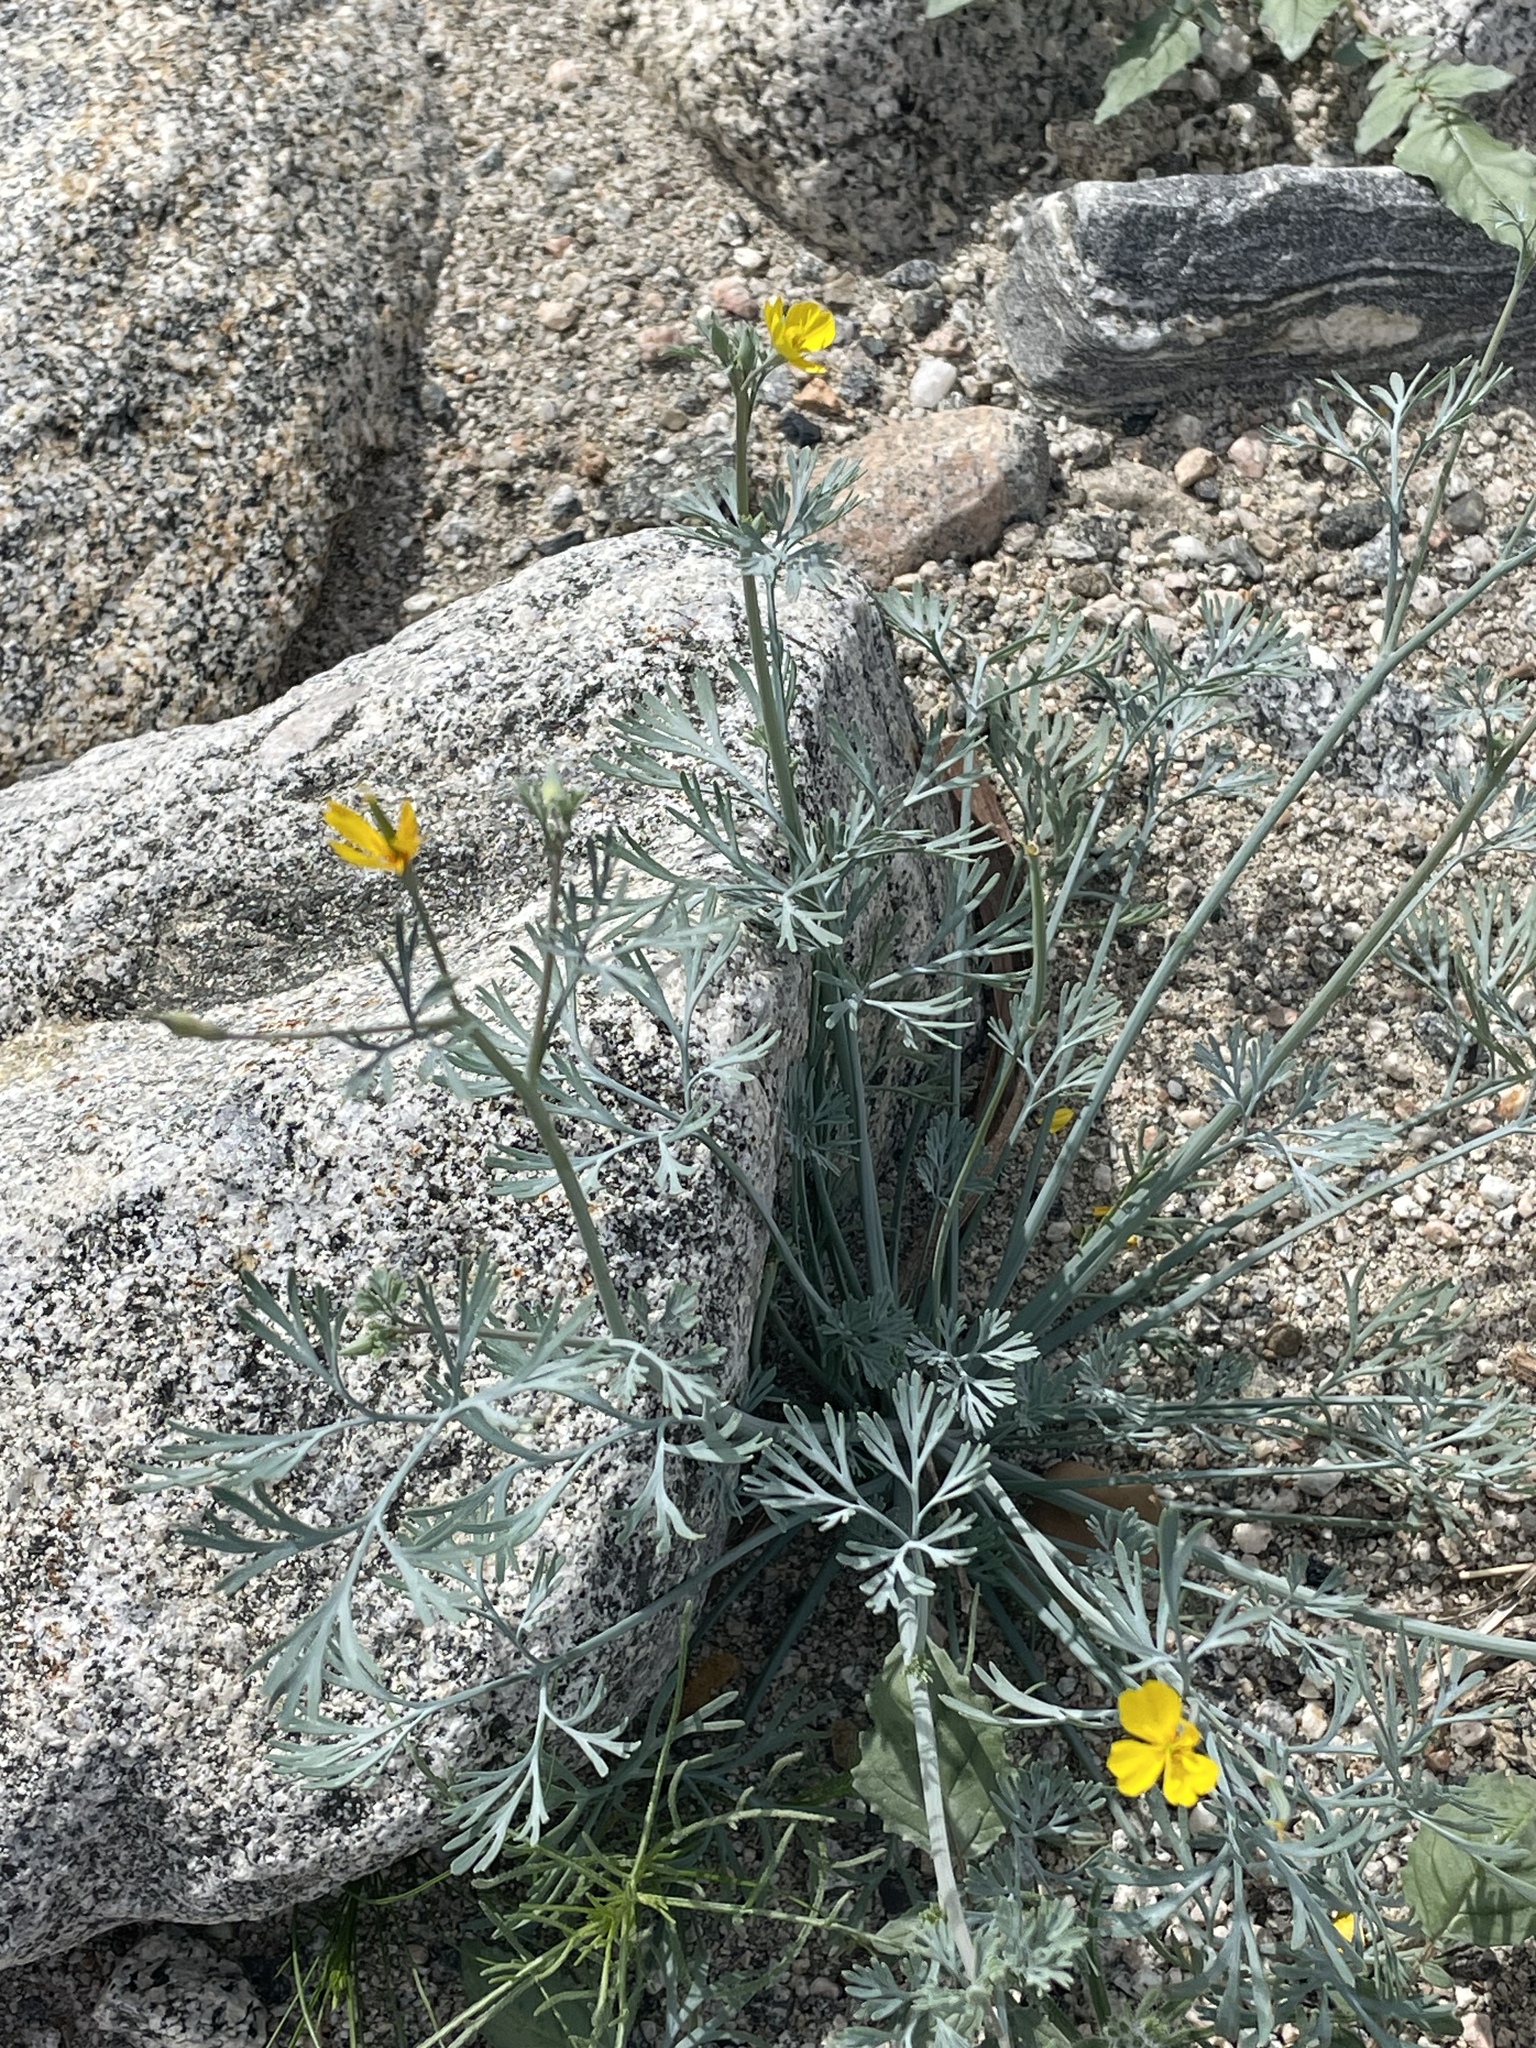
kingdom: Plantae
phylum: Tracheophyta
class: Magnoliopsida
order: Ranunculales
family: Papaveraceae
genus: Eschscholzia
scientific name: Eschscholzia minutiflora
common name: Small-flower california-poppy
